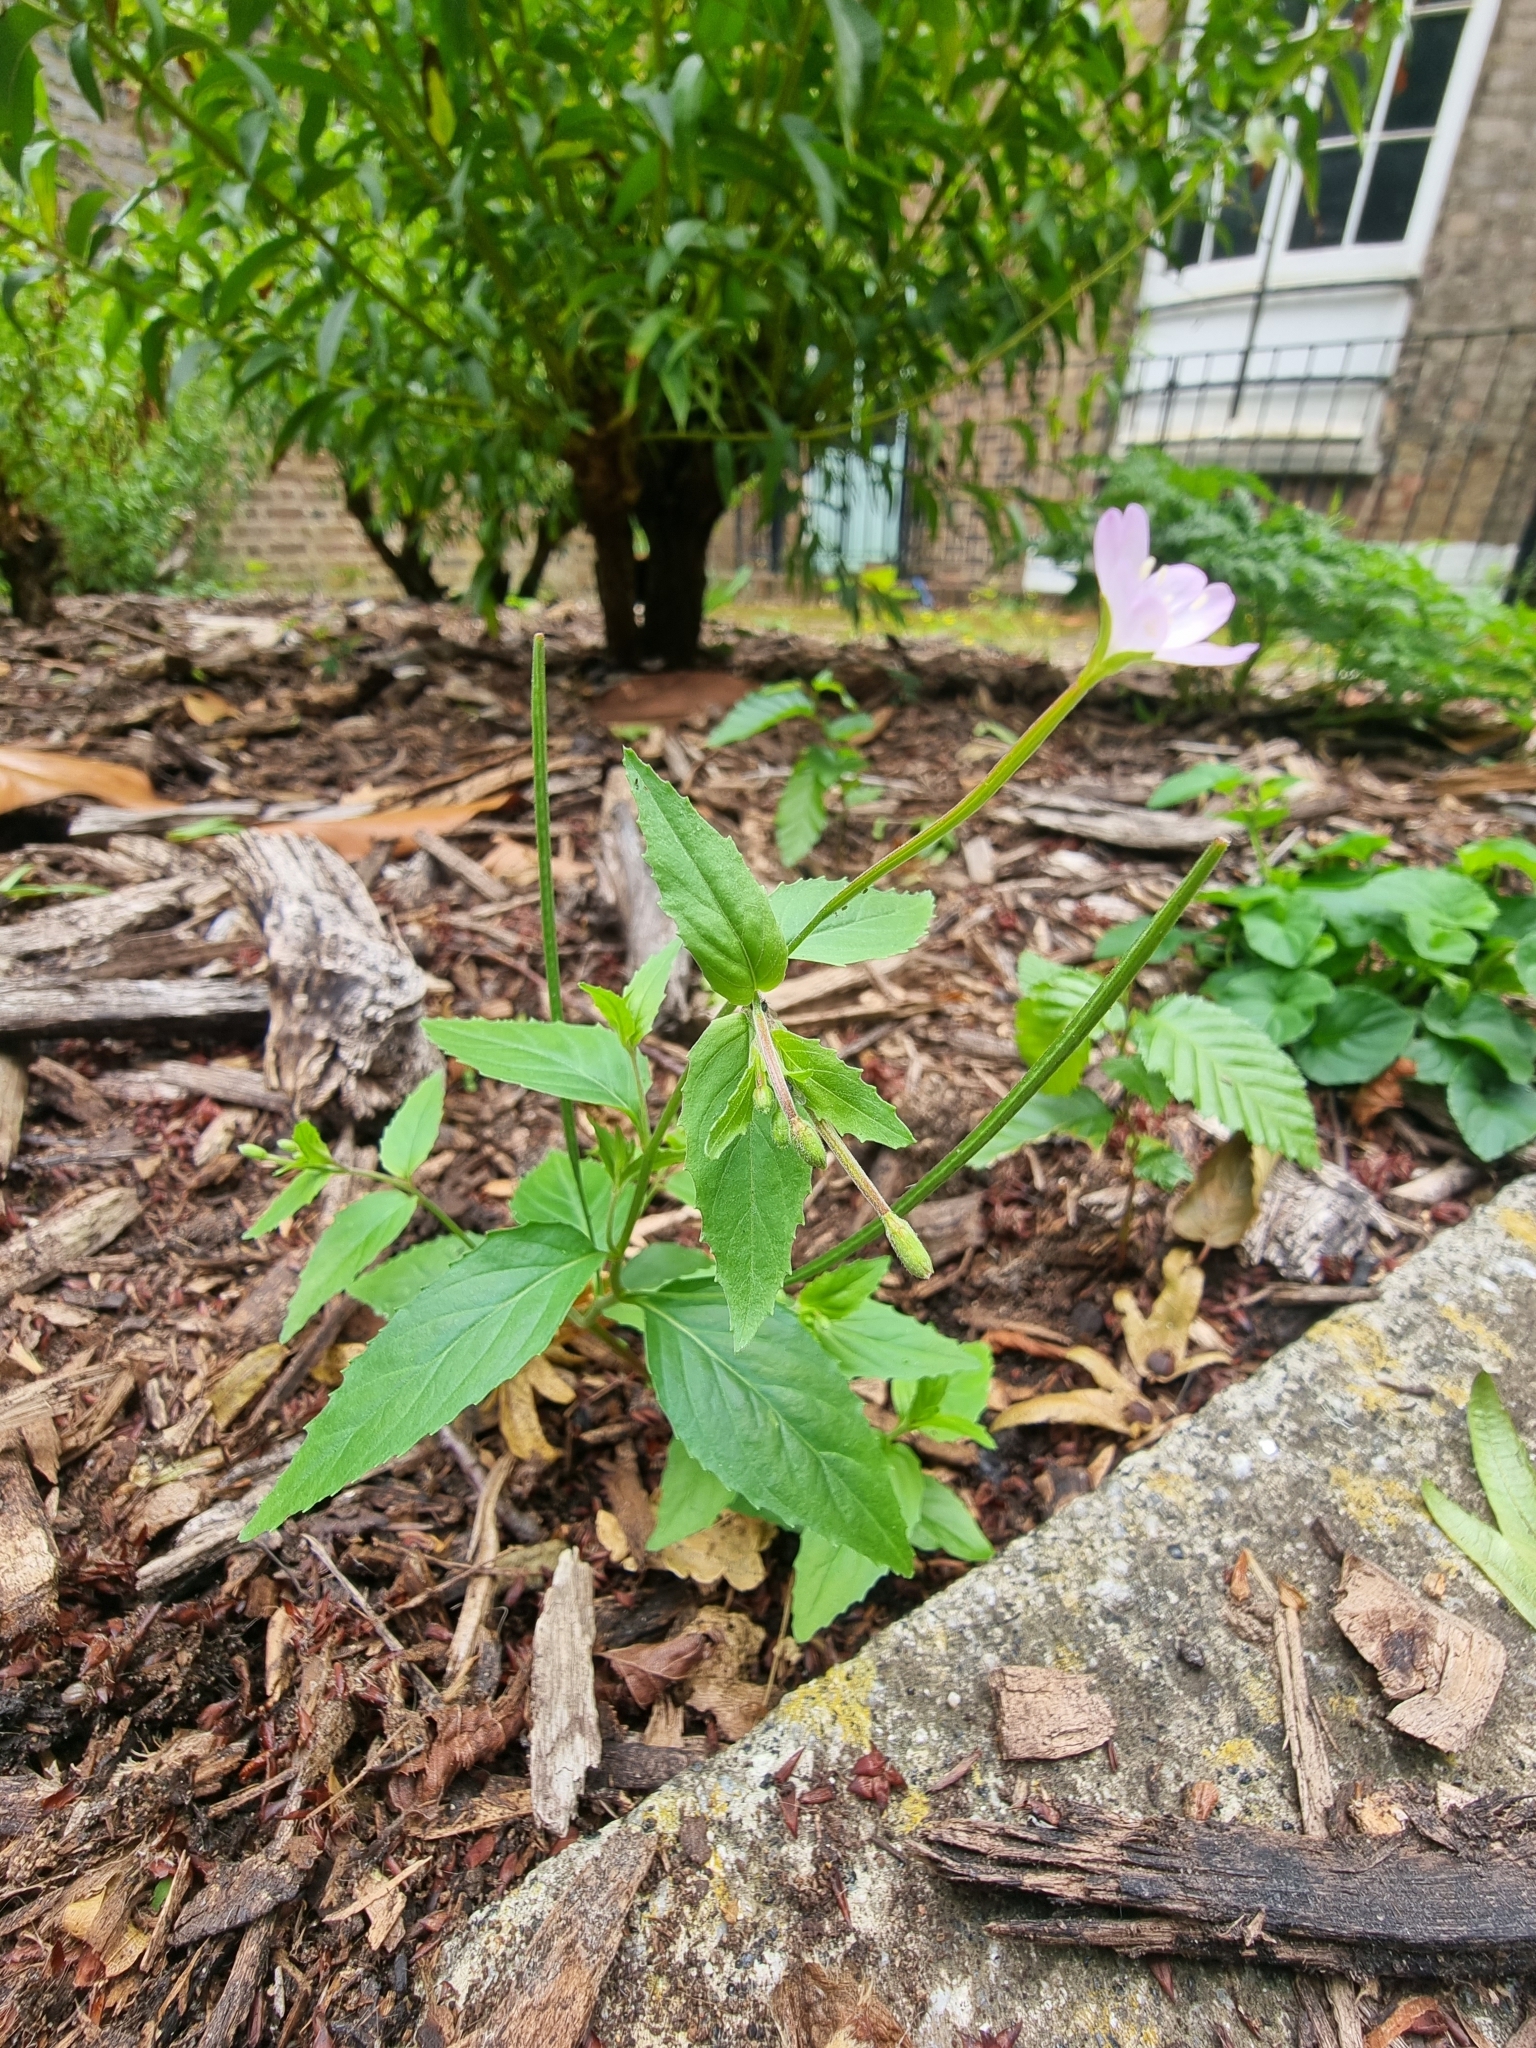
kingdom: Plantae
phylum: Tracheophyta
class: Magnoliopsida
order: Myrtales
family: Onagraceae
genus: Epilobium
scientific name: Epilobium montanum
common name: Broad-leaved willowherb
